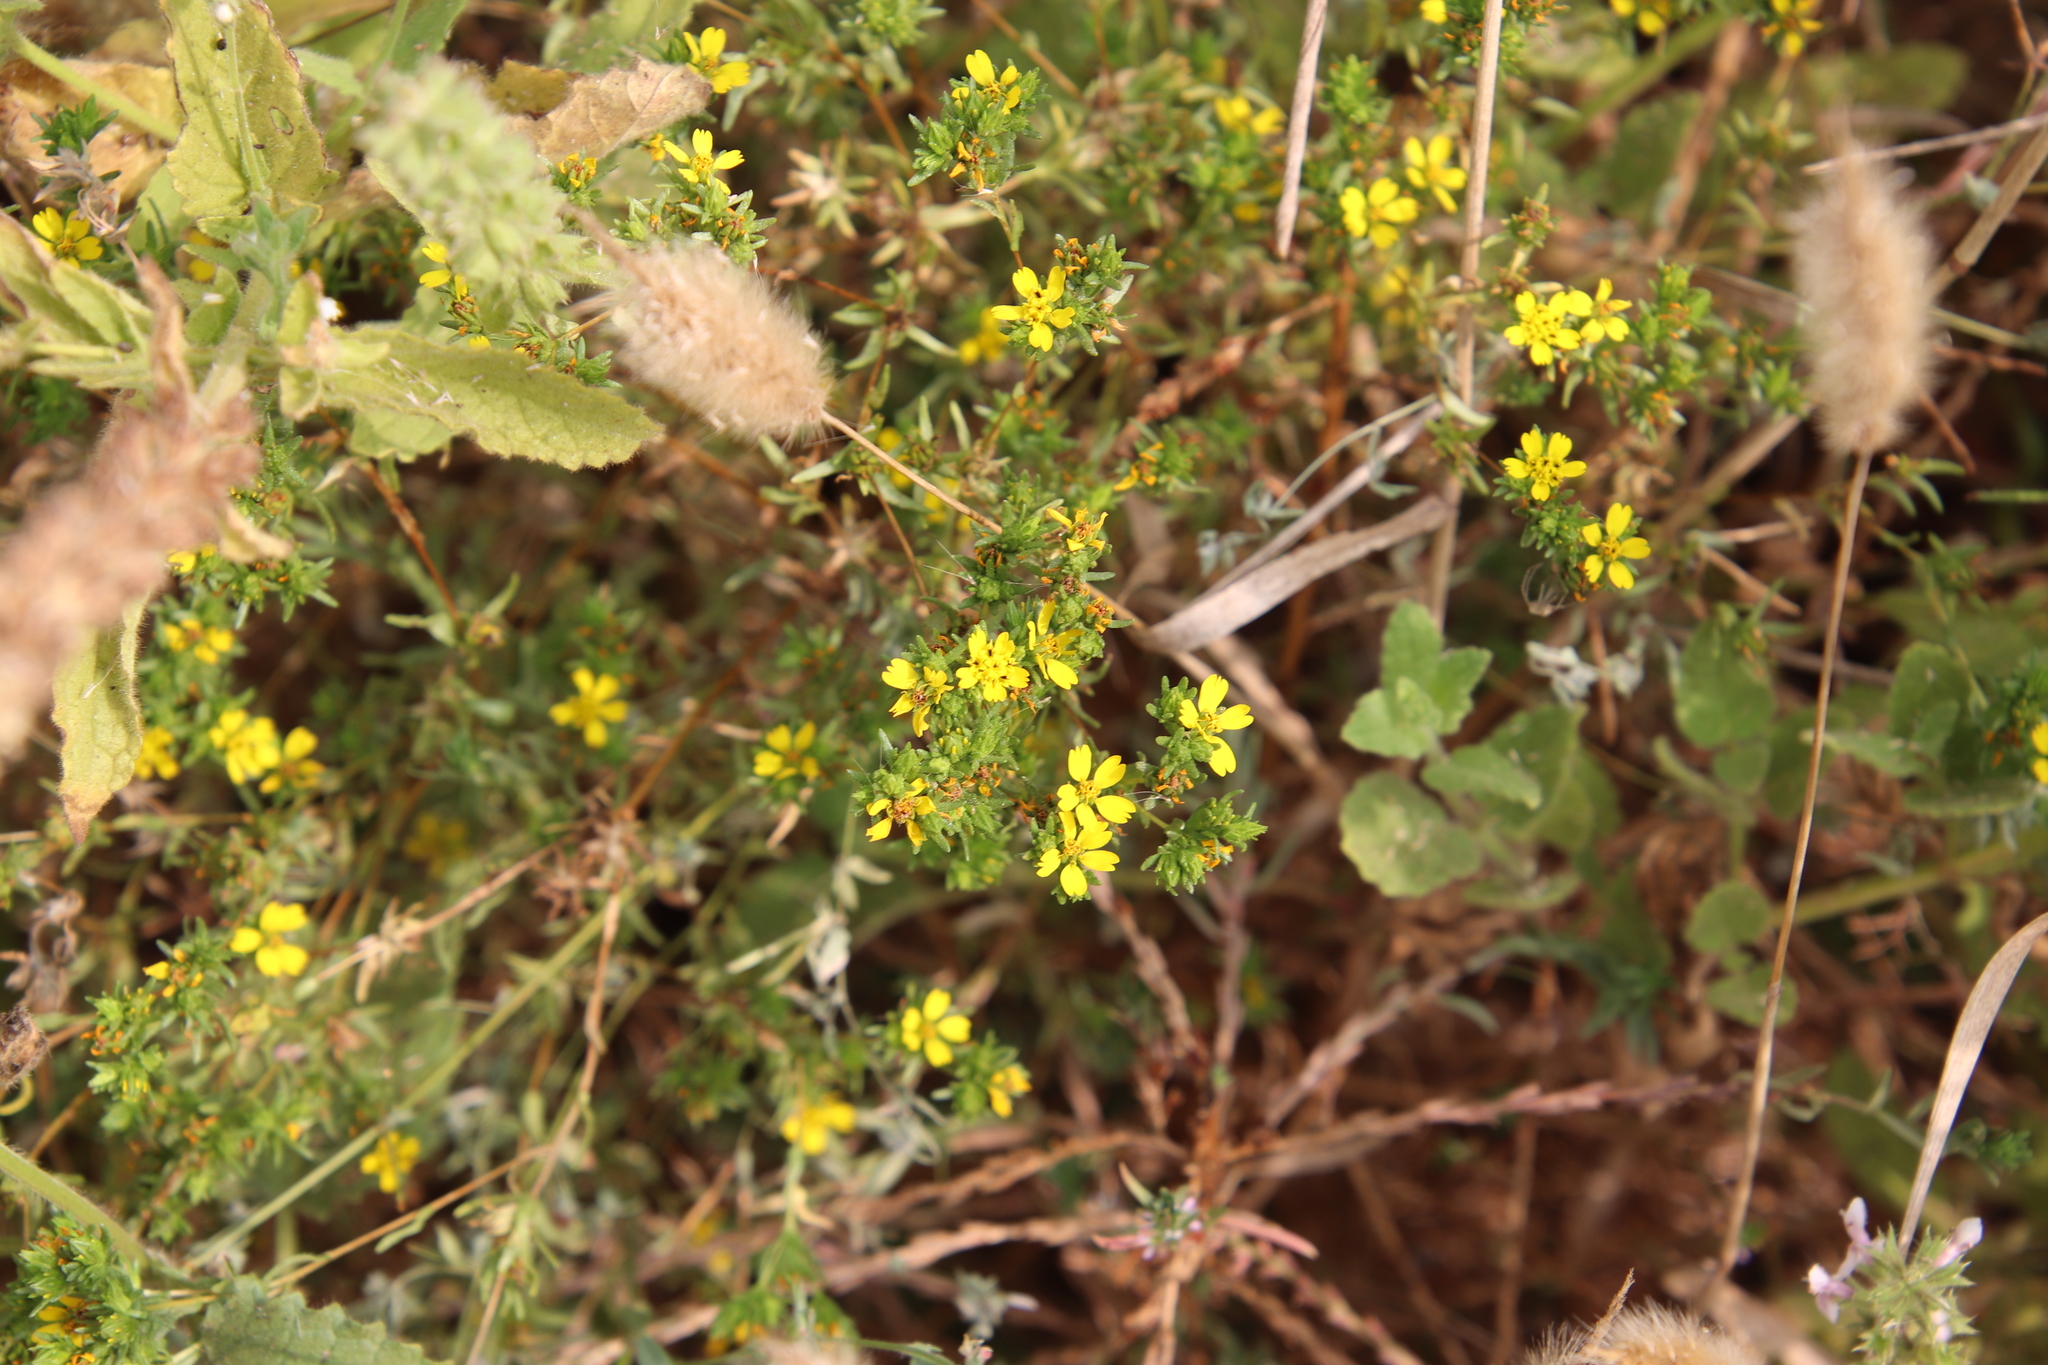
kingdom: Plantae
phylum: Tracheophyta
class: Magnoliopsida
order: Asterales
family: Asteraceae
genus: Deinandra
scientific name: Deinandra fasciculata
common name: Clustered tarweed
